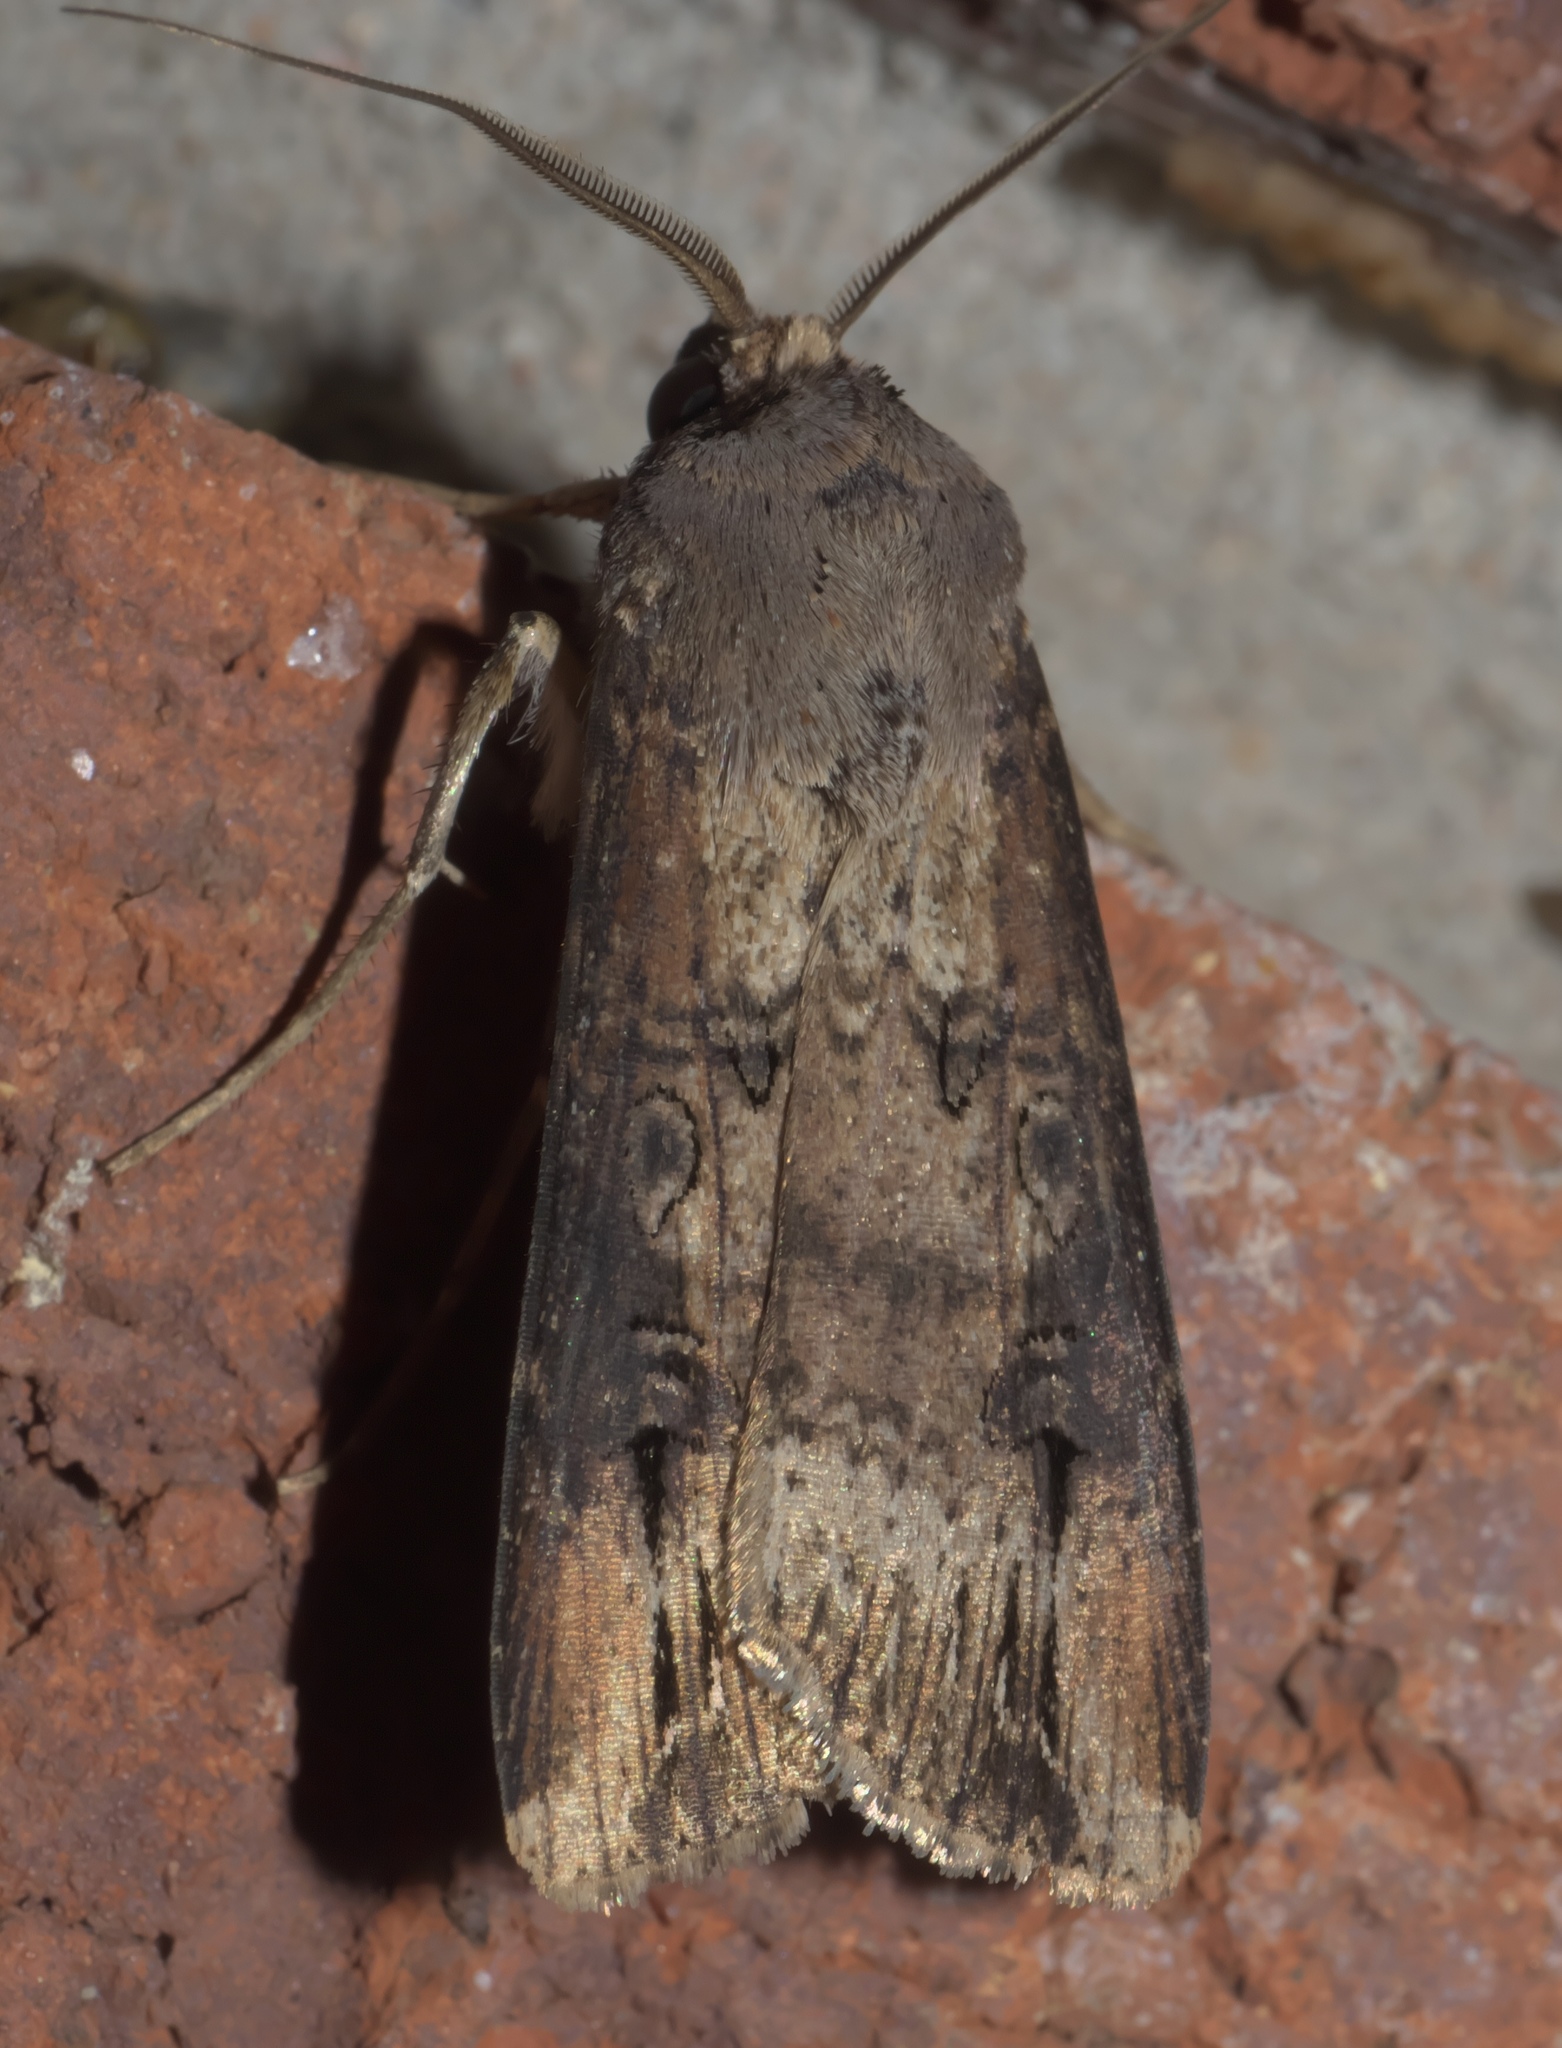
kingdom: Animalia
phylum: Arthropoda
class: Insecta
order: Lepidoptera
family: Noctuidae
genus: Agrotis
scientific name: Agrotis ipsilon
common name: Dark sword-grass
